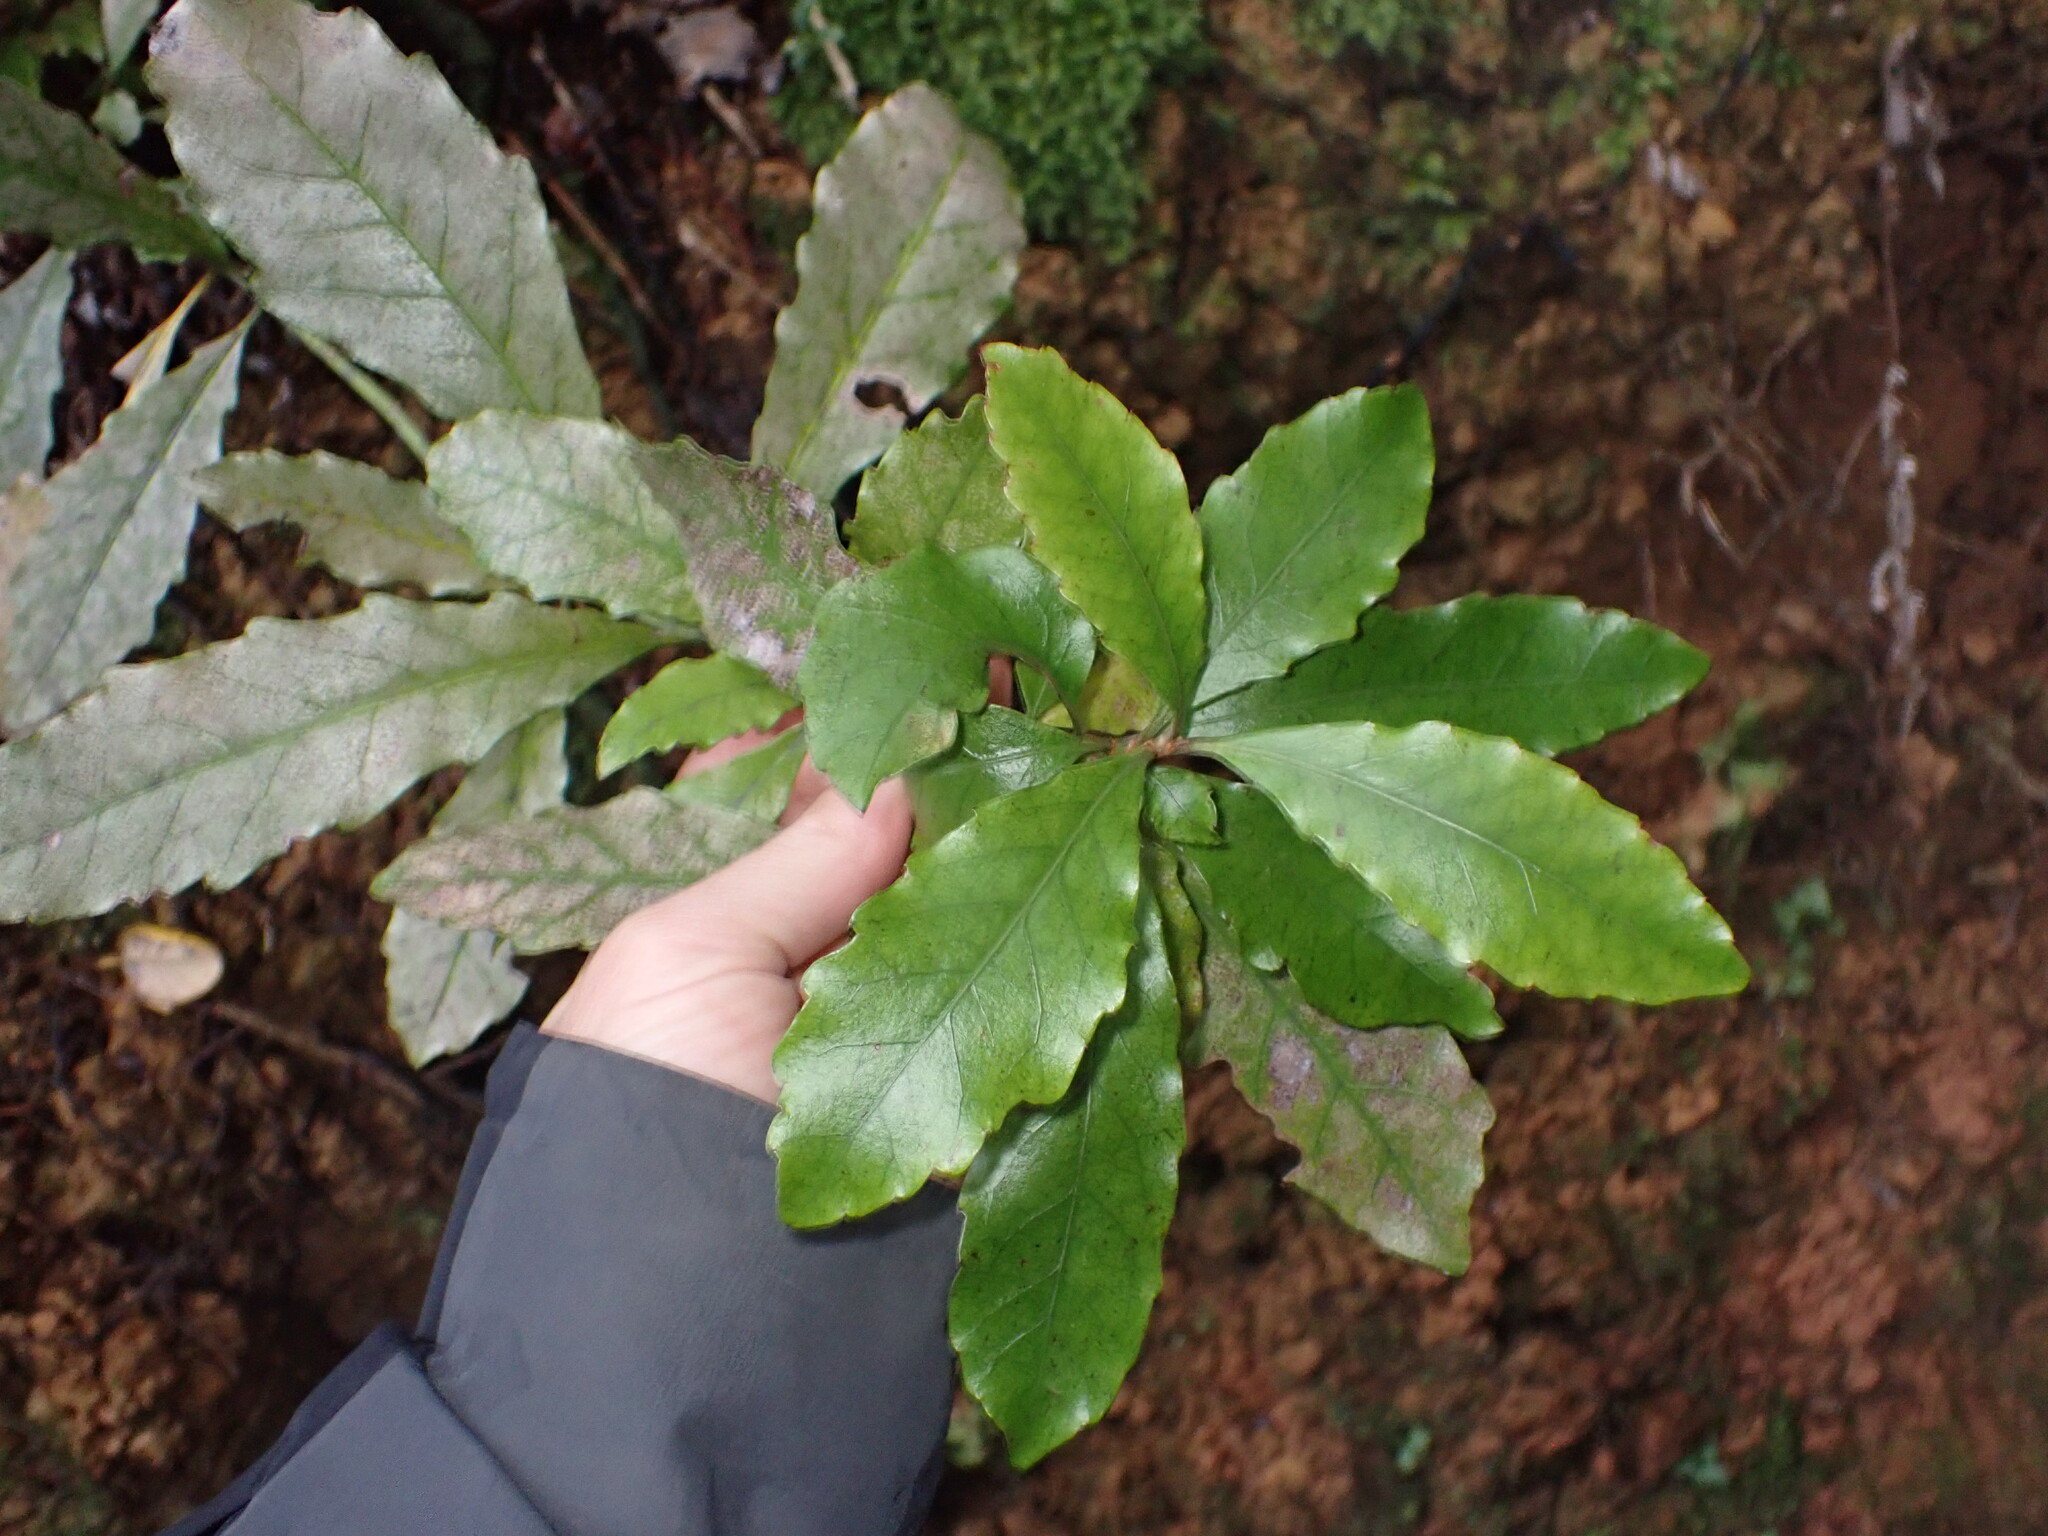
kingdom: Plantae
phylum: Tracheophyta
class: Magnoliopsida
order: Asterales
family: Alseuosmiaceae
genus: Alseuosmia
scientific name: Alseuosmia macrophylla
